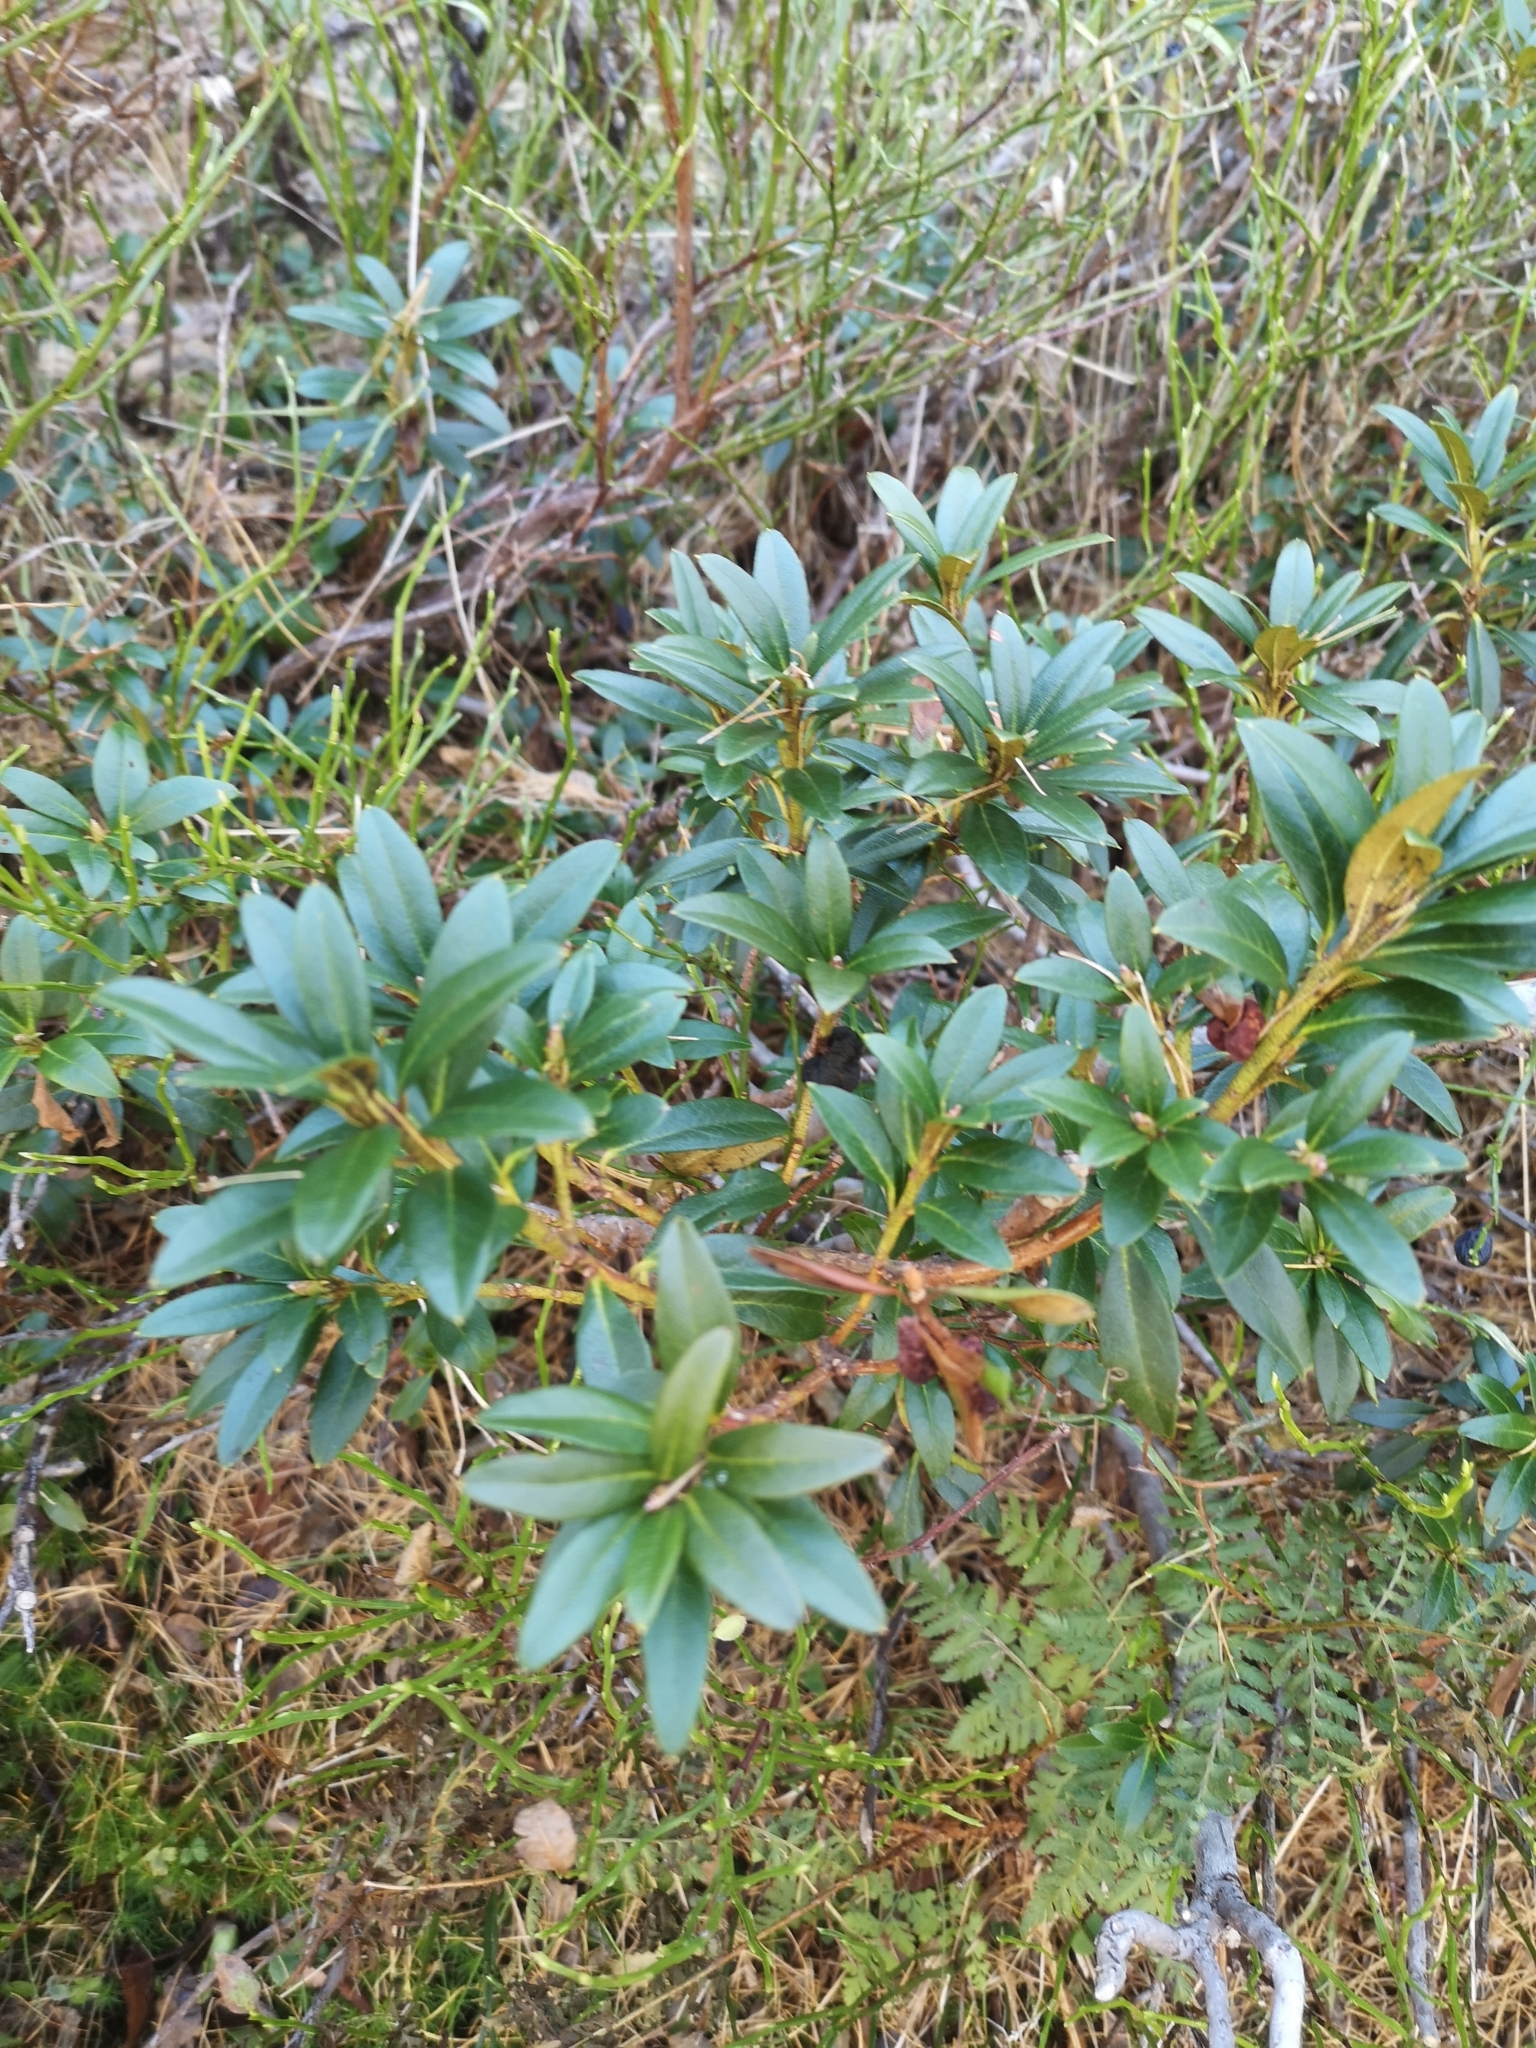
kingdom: Plantae
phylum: Tracheophyta
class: Magnoliopsida
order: Ericales
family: Ericaceae
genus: Rhododendron
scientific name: Rhododendron ferrugineum
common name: Alpenrose
